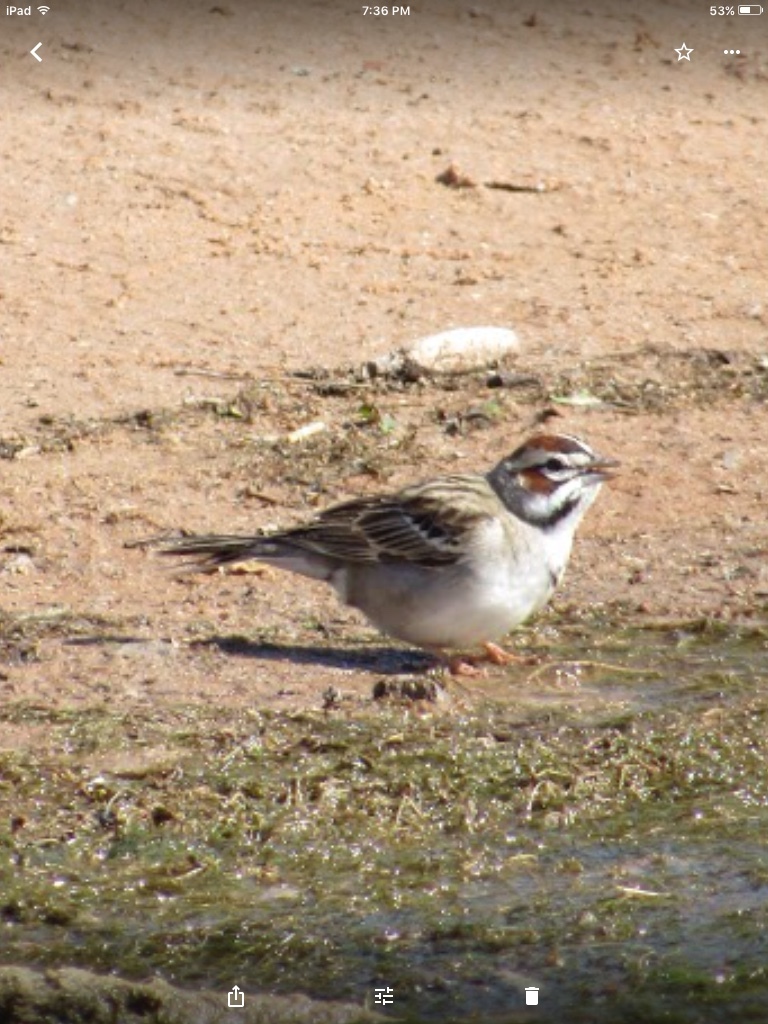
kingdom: Animalia
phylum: Chordata
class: Aves
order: Passeriformes
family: Passerellidae
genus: Chondestes
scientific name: Chondestes grammacus
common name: Lark sparrow
